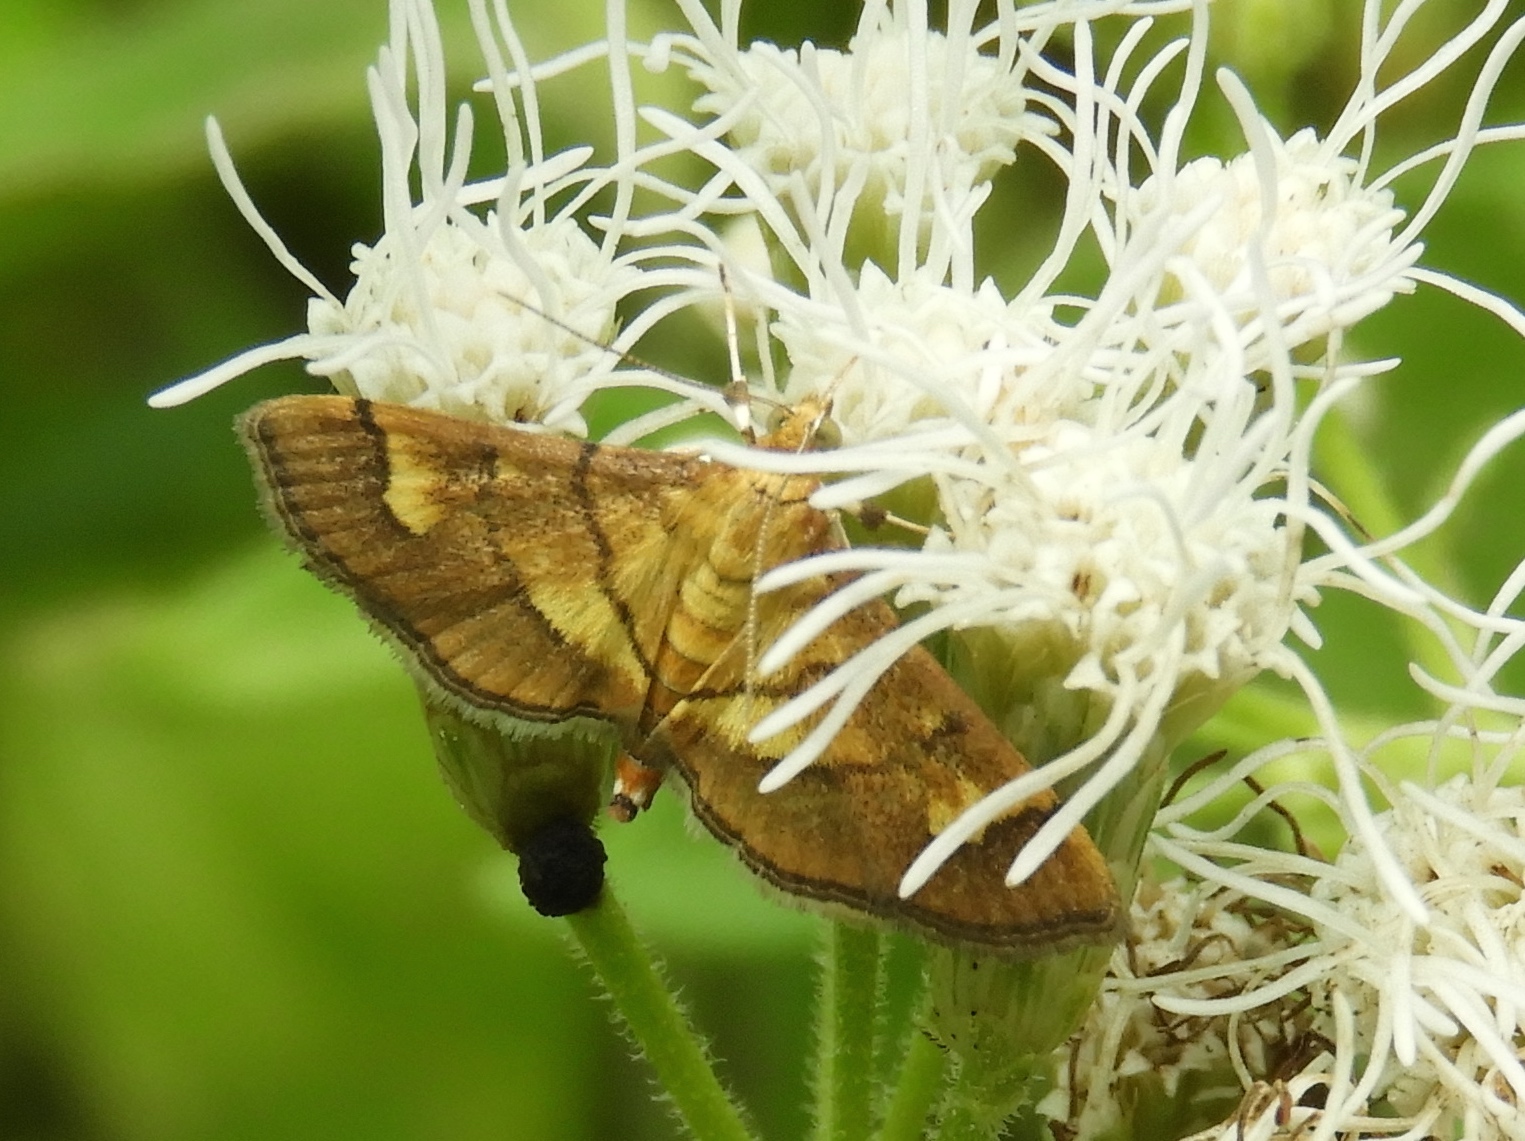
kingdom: Animalia
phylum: Arthropoda
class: Insecta
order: Lepidoptera
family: Crambidae
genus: Salbia
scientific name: Salbia haemorrhoidalis
